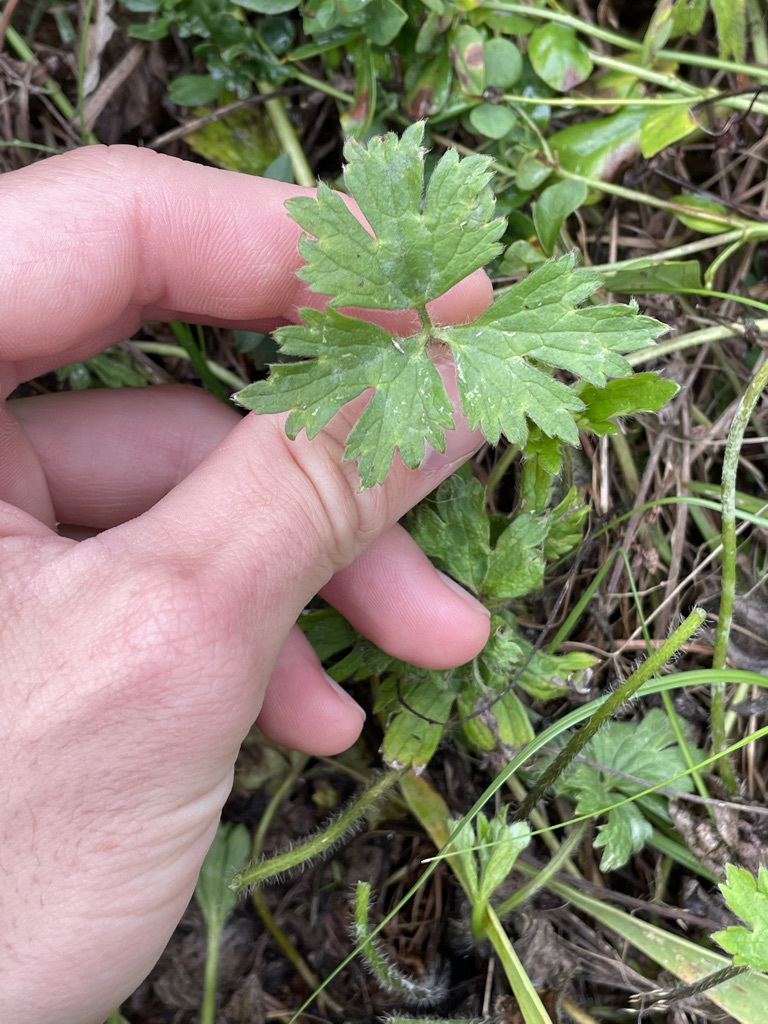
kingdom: Plantae
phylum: Tracheophyta
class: Magnoliopsida
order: Ranunculales
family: Ranunculaceae
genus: Ranunculus
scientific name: Ranunculus repens
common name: Creeping buttercup
